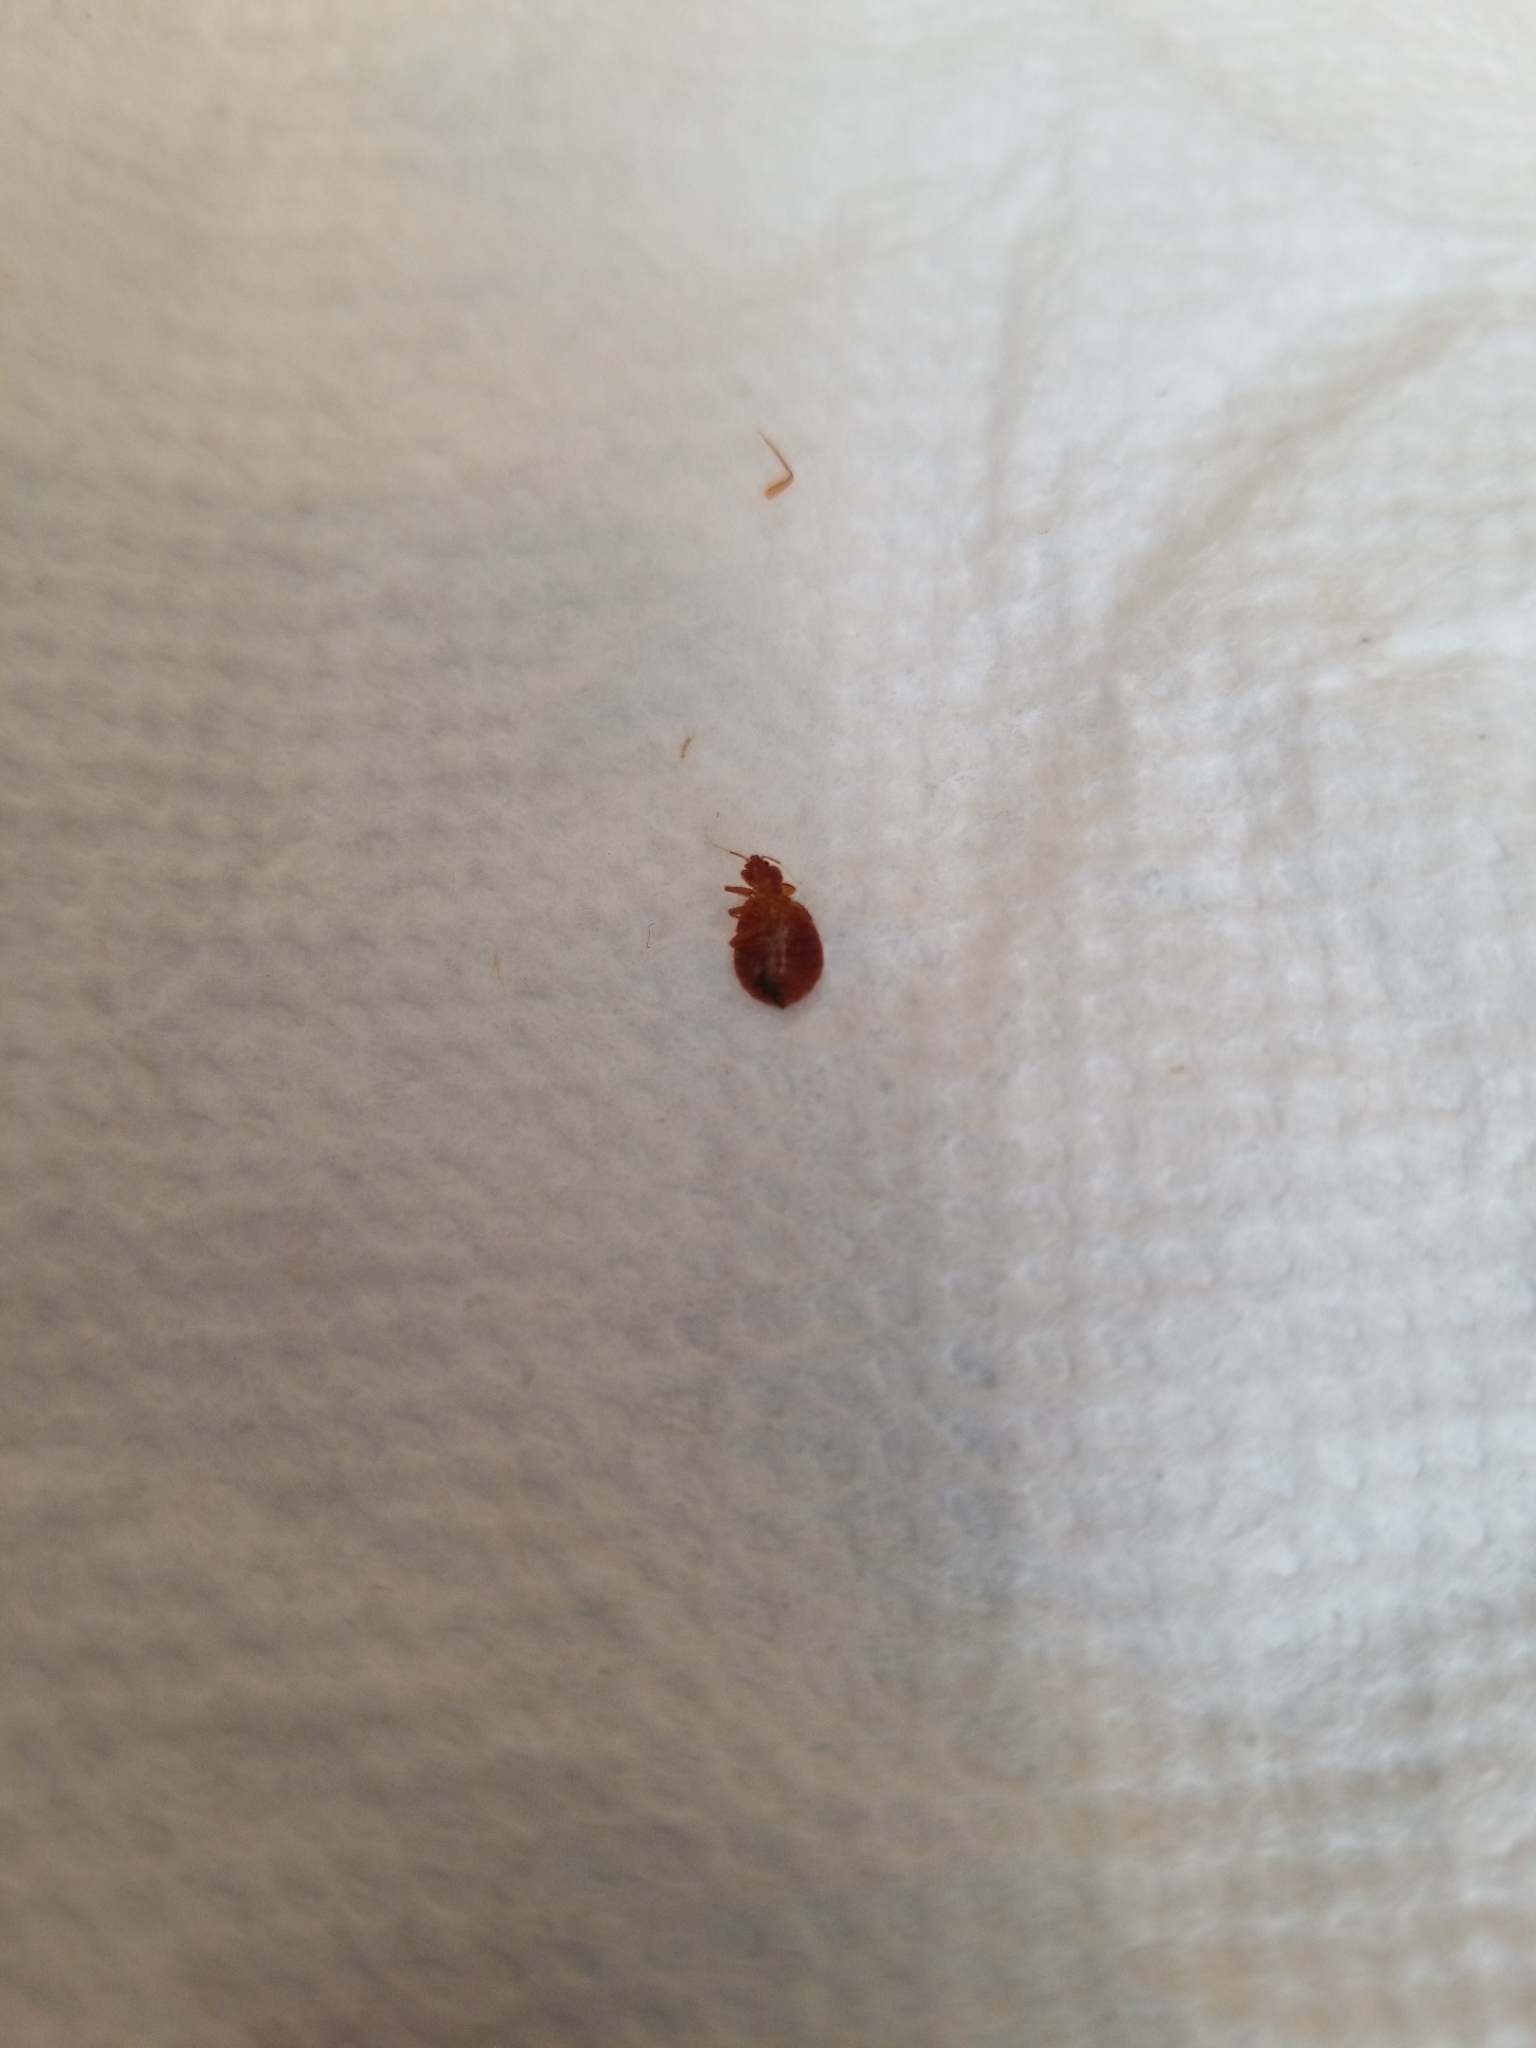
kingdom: Animalia
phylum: Arthropoda
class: Insecta
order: Hemiptera
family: Cimicidae
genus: Cimex
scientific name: Cimex lectularius
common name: Bed bug
